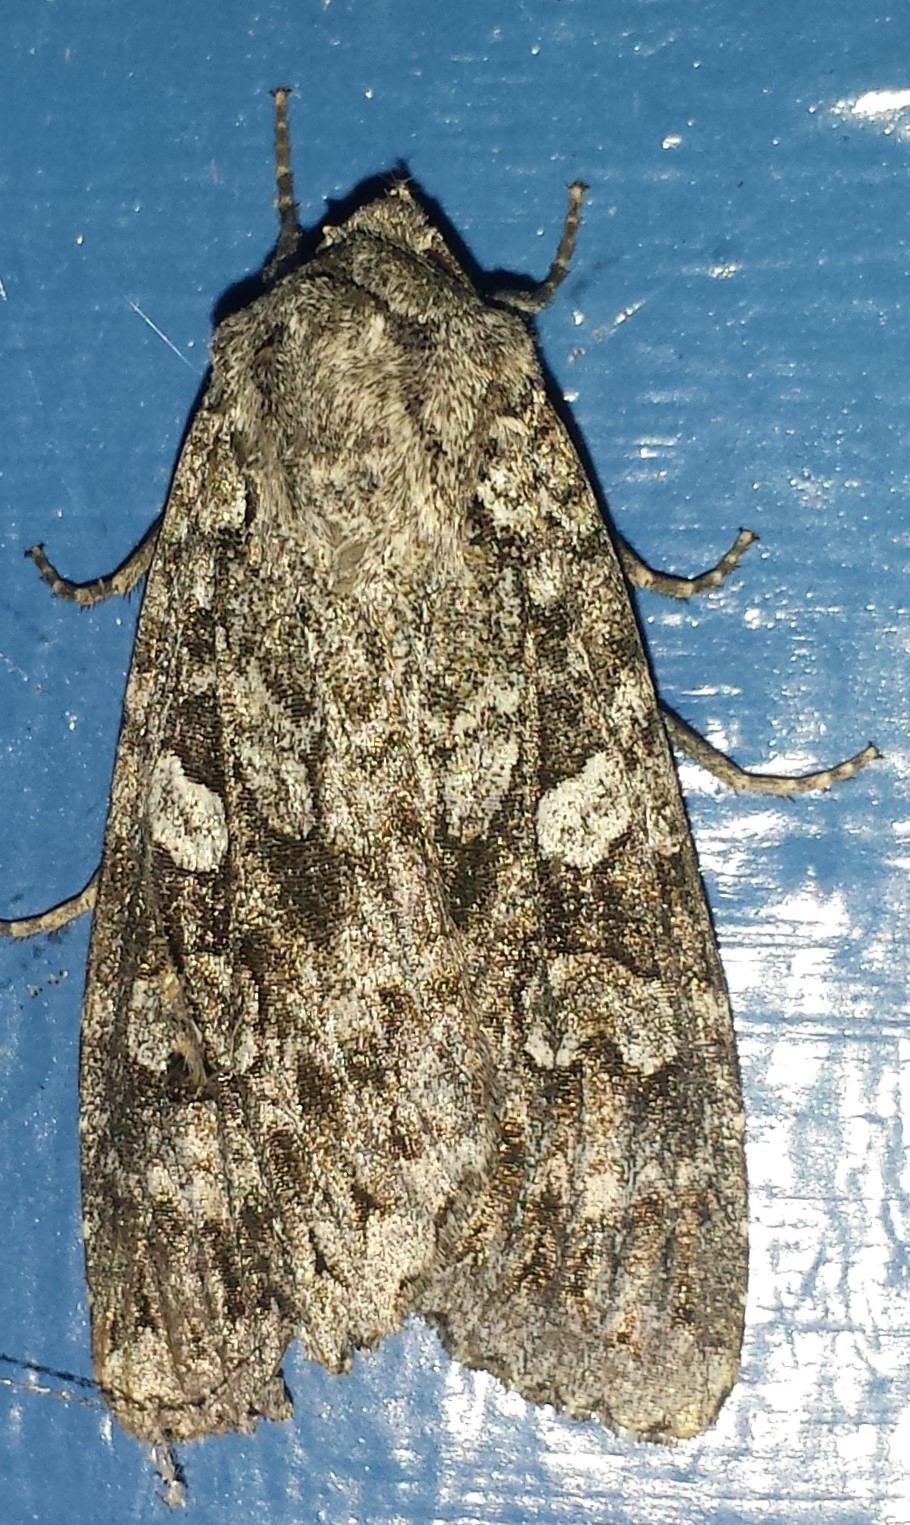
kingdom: Animalia
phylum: Arthropoda
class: Insecta
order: Lepidoptera
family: Noctuidae
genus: Eurois
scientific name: Eurois occulta
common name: Great brocade
